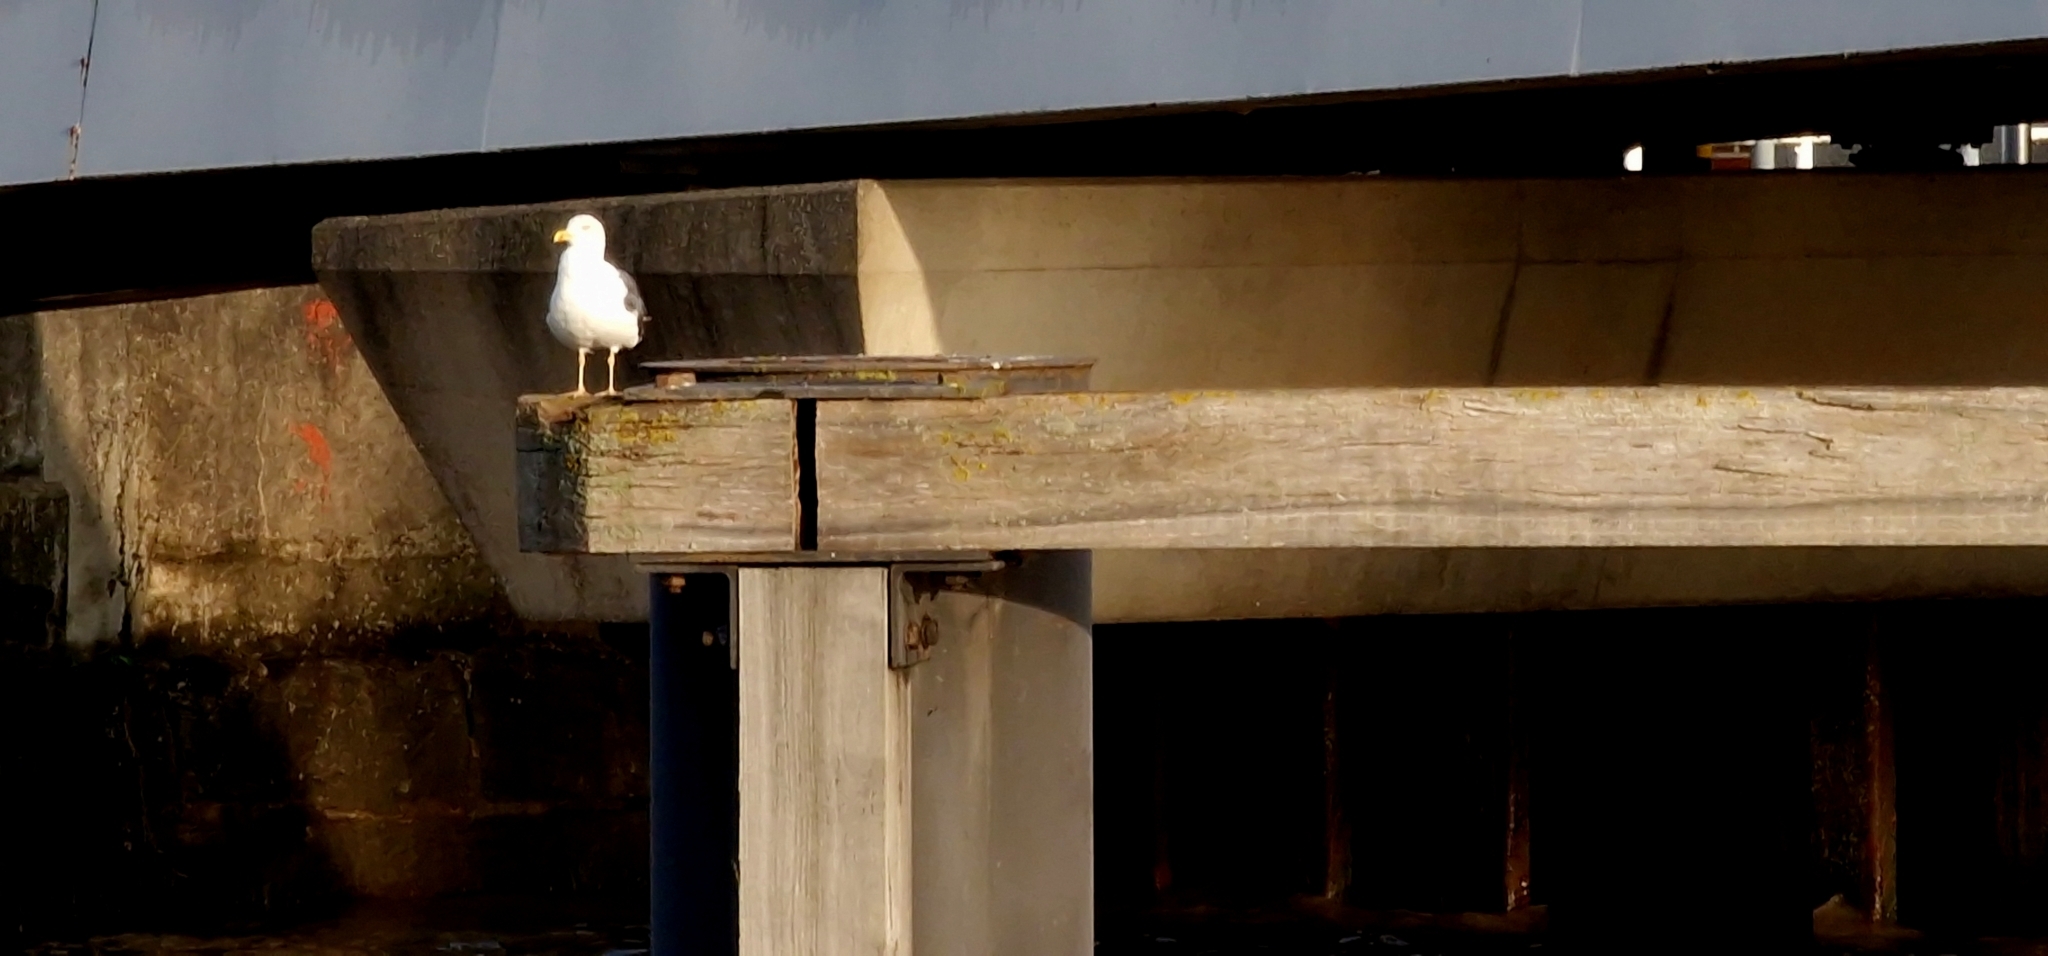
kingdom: Animalia
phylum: Chordata
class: Aves
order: Charadriiformes
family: Laridae
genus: Larus
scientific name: Larus fuscus
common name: Lesser black-backed gull
